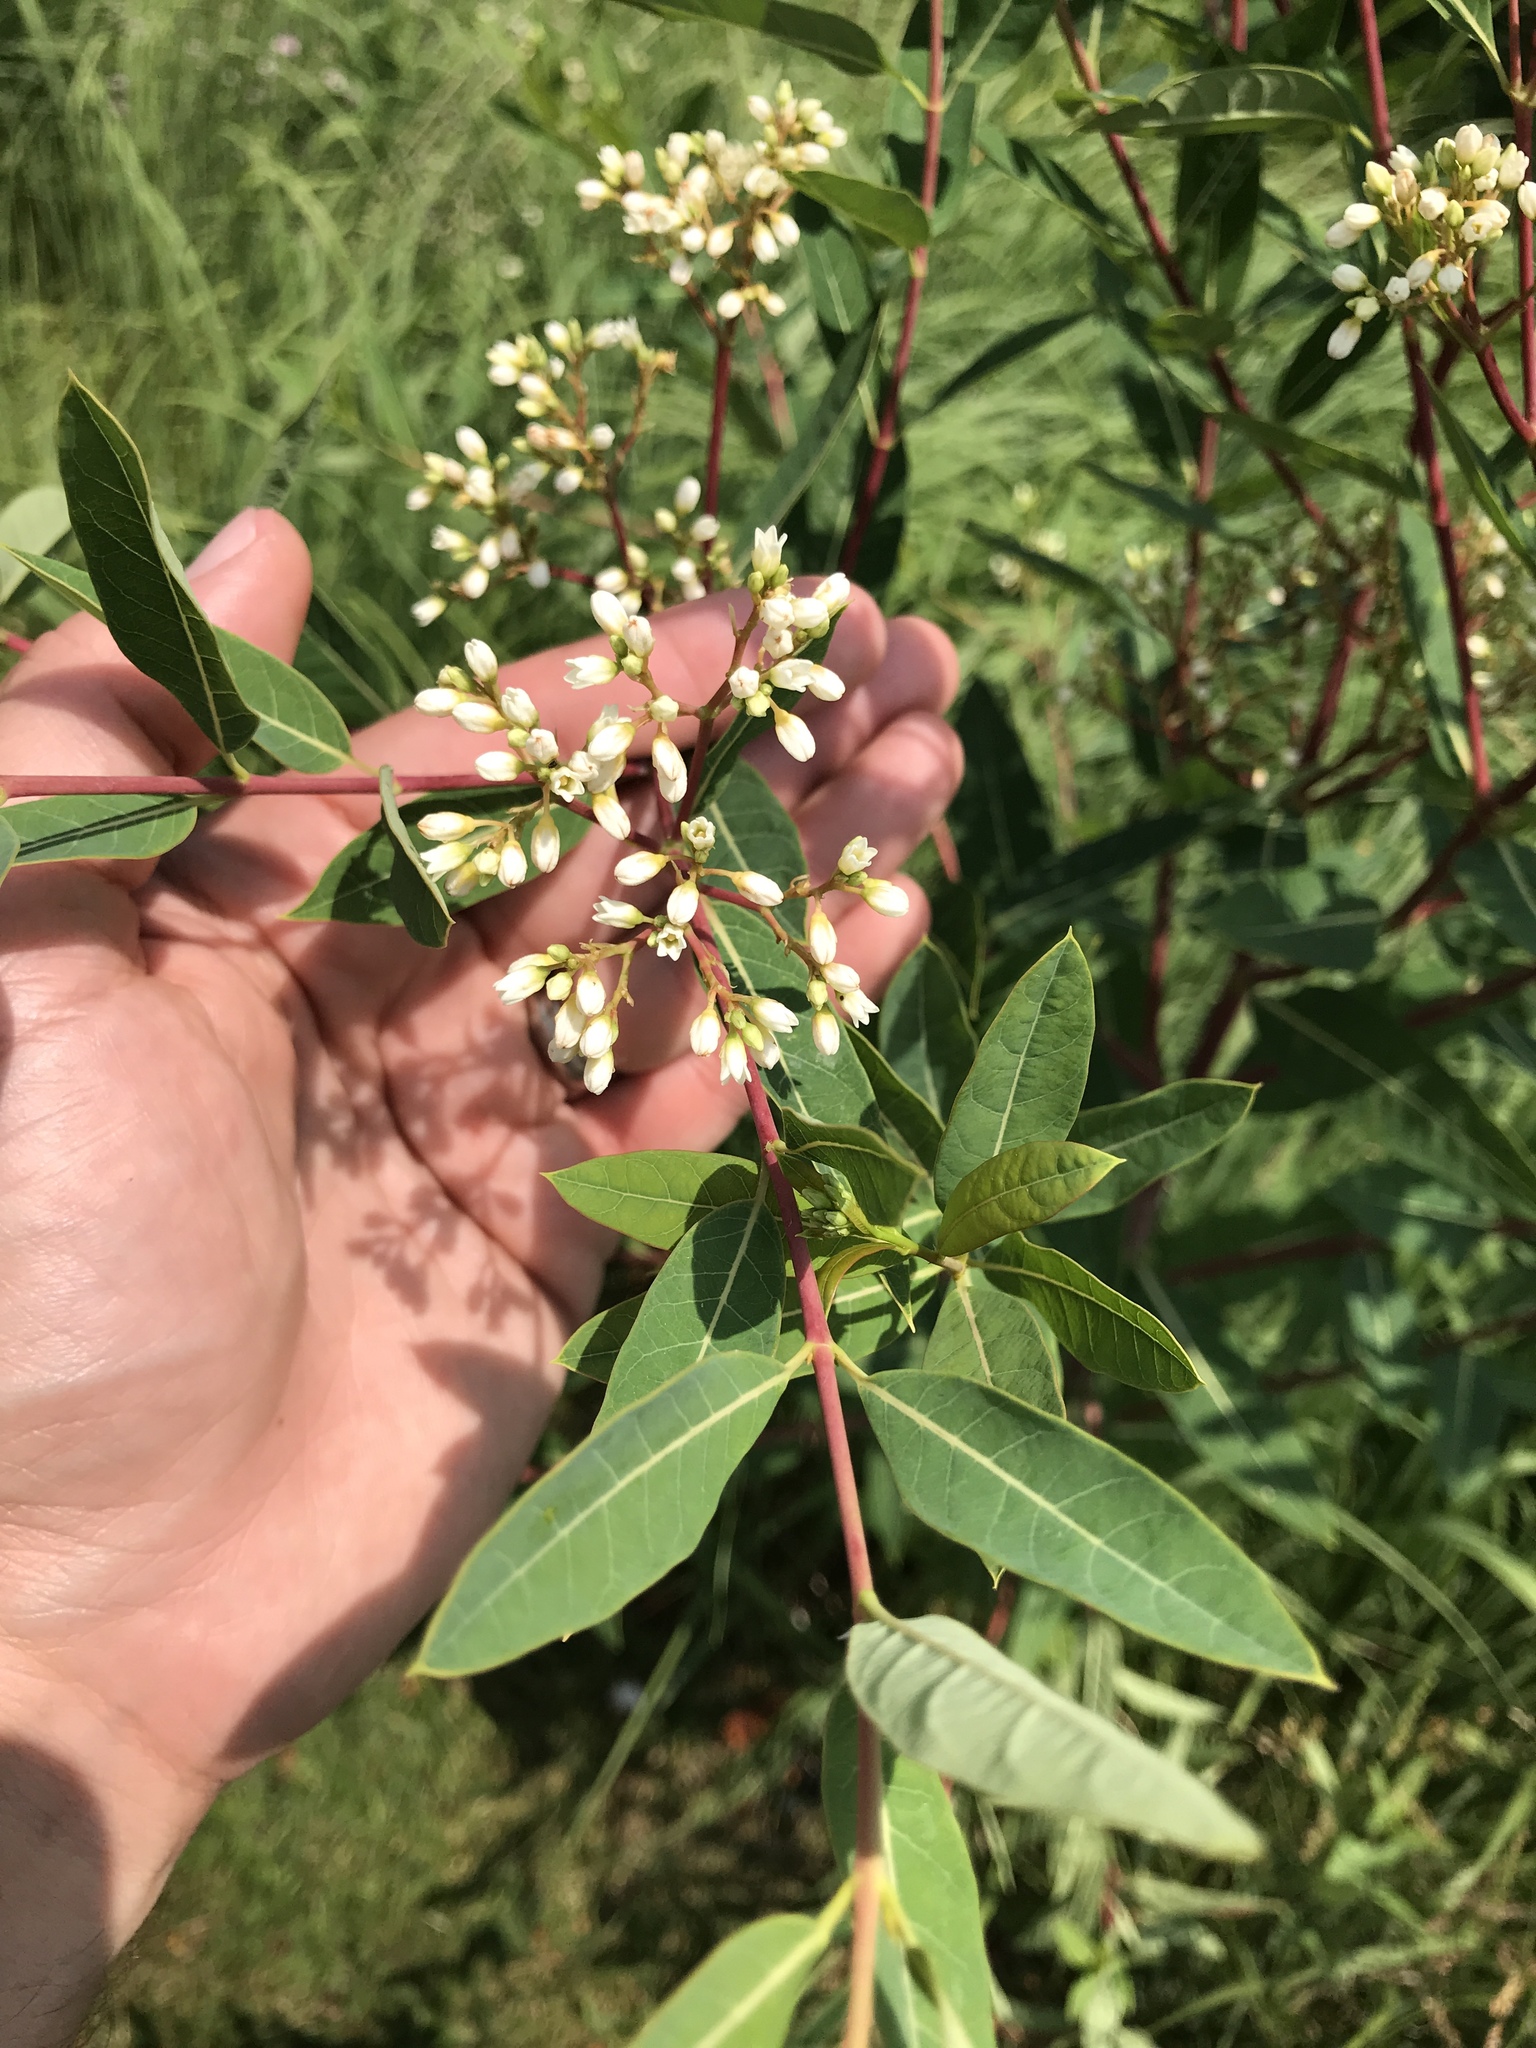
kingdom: Plantae
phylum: Tracheophyta
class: Magnoliopsida
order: Gentianales
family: Apocynaceae
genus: Apocynum
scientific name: Apocynum cannabinum
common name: Hemp dogbane
